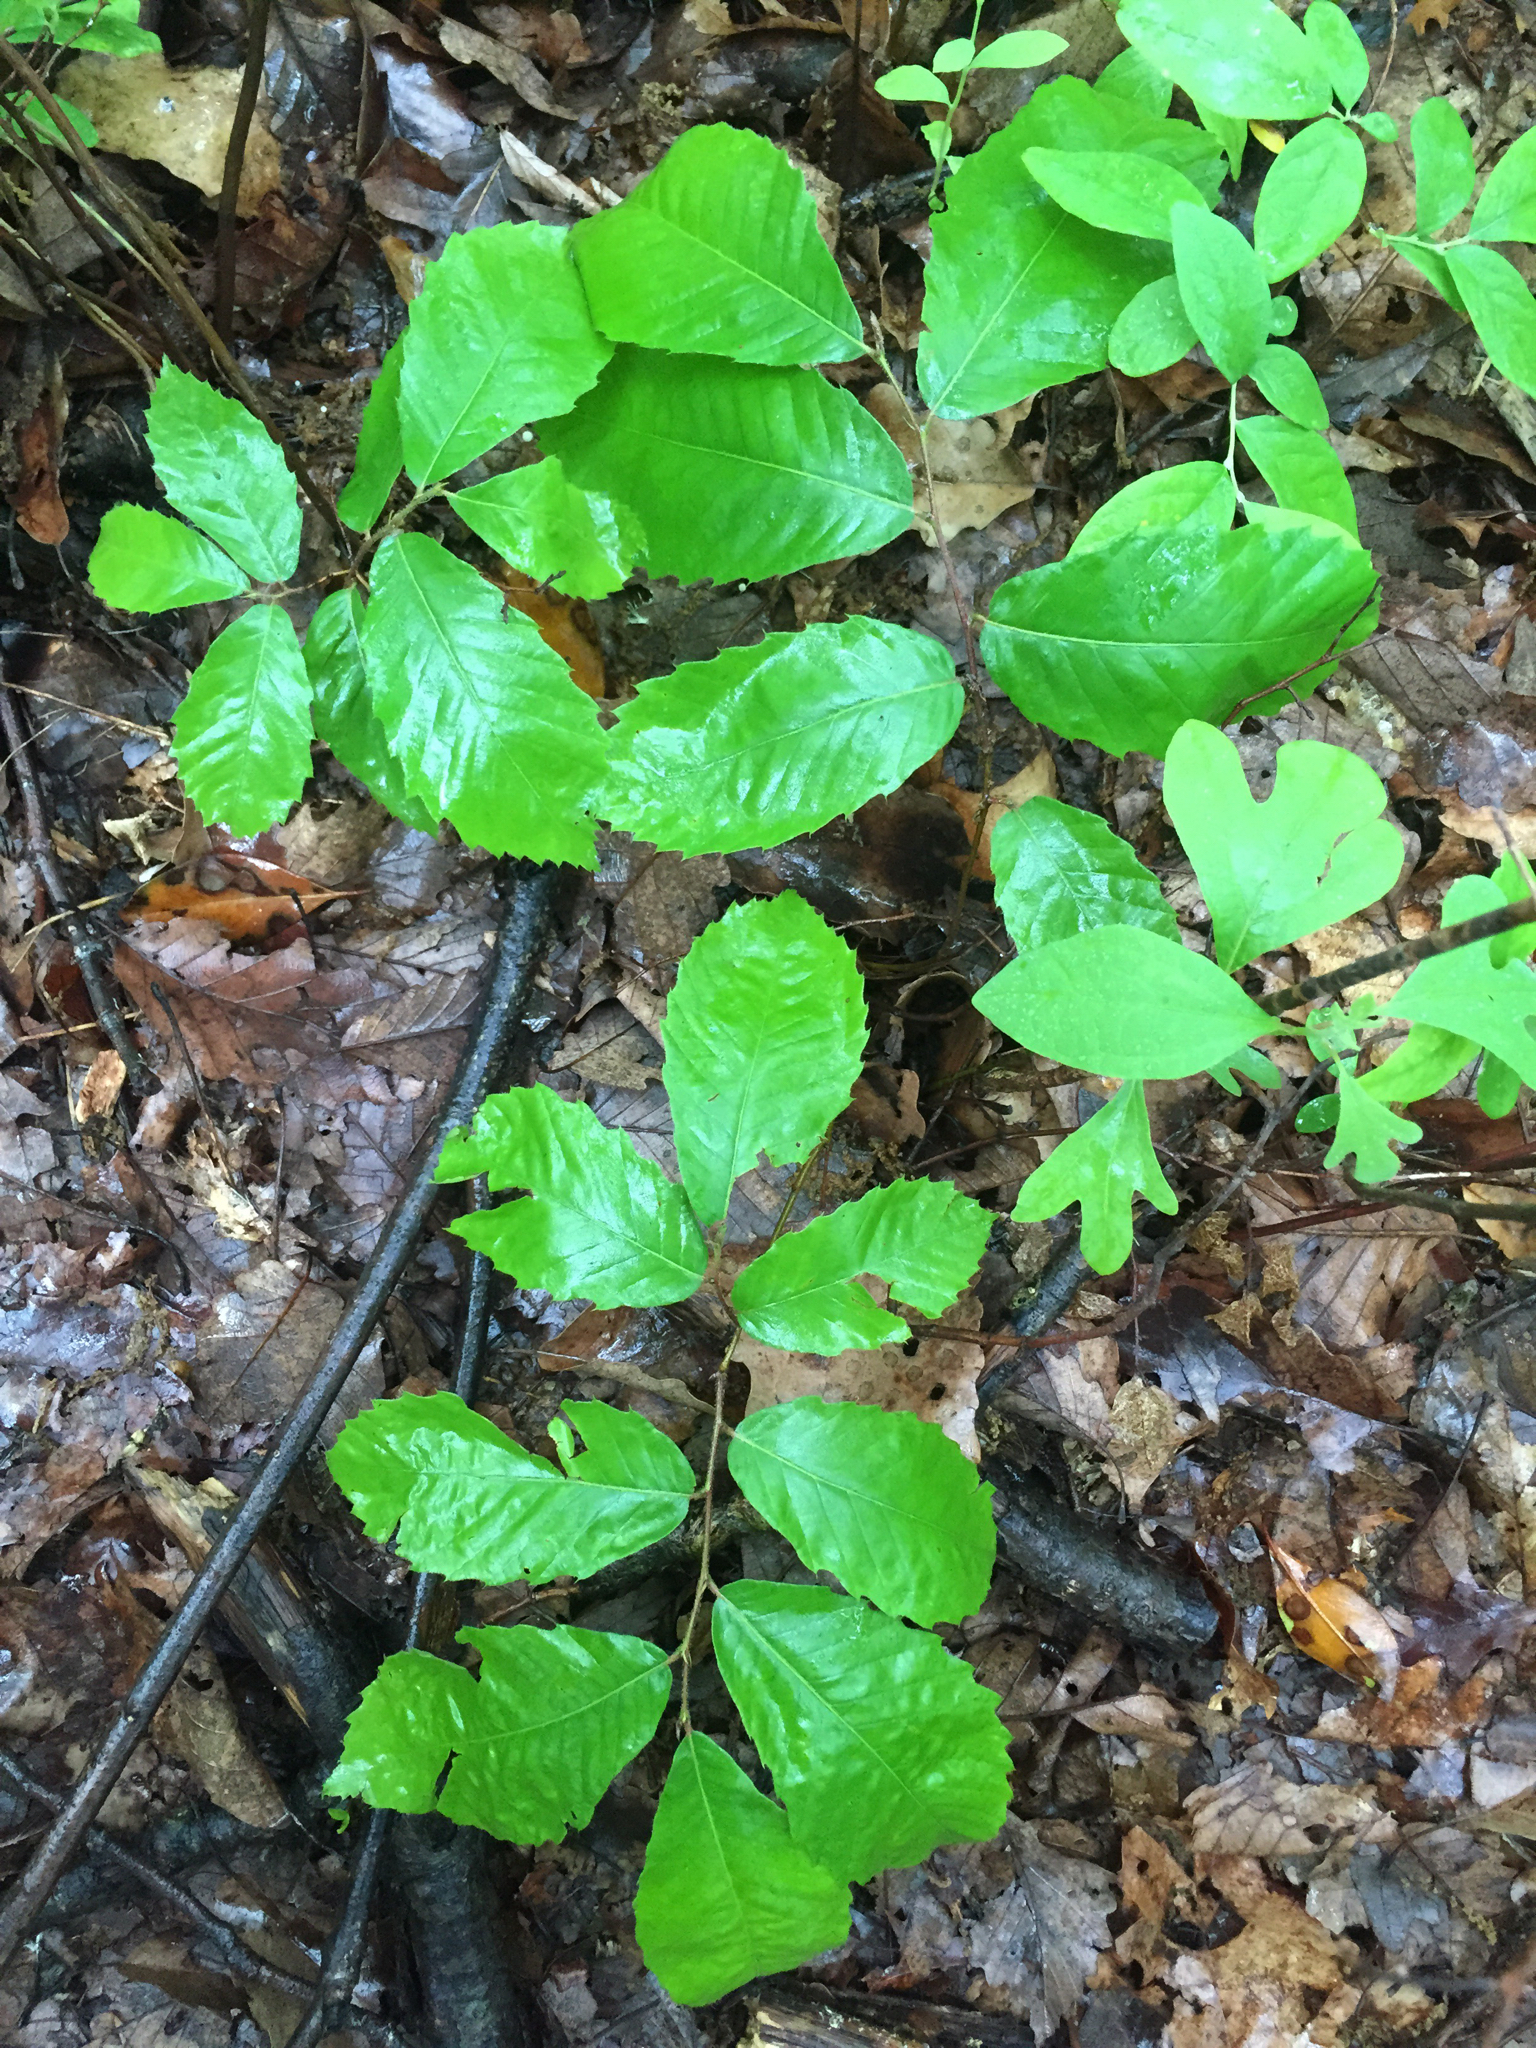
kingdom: Plantae
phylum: Tracheophyta
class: Magnoliopsida
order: Fagales
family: Fagaceae
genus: Castanea
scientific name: Castanea pumila
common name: Chinkapin
